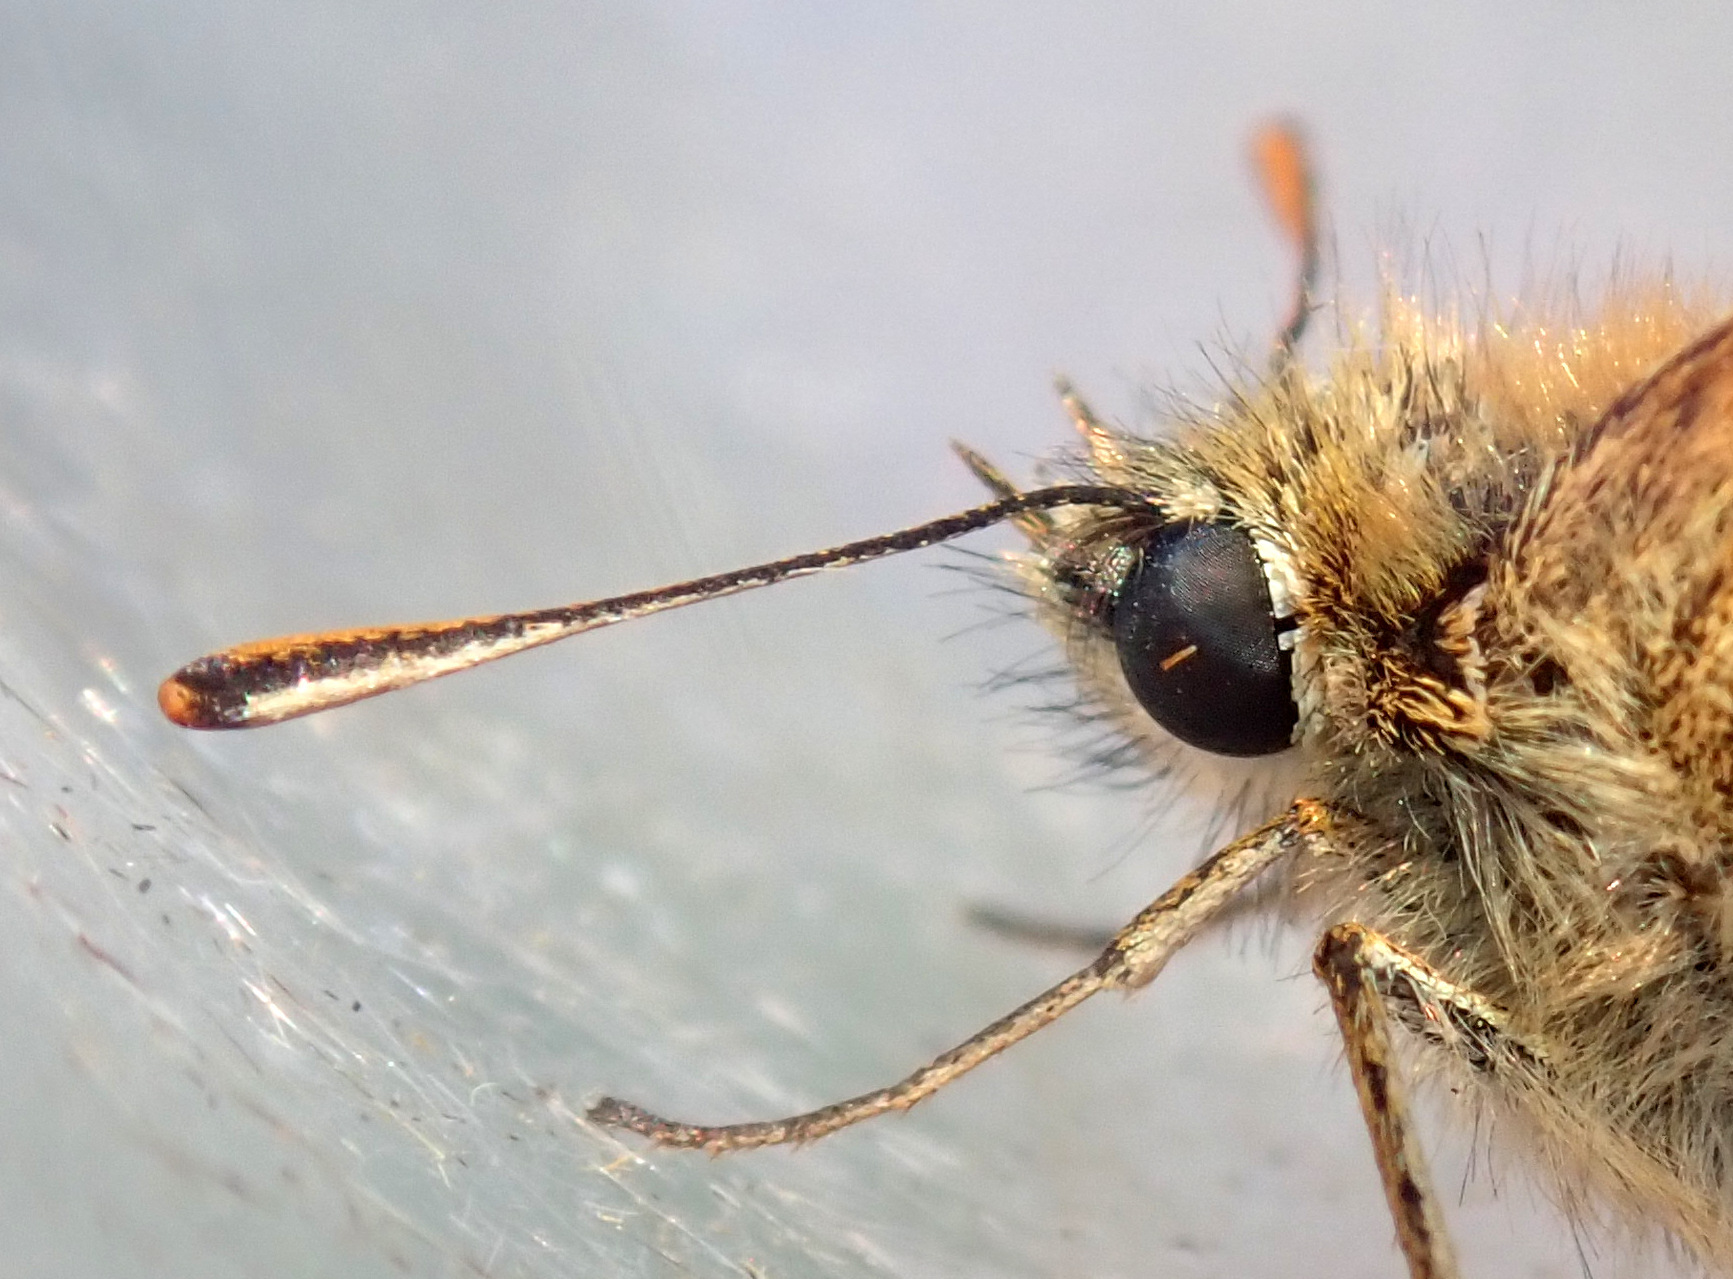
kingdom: Animalia
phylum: Arthropoda
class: Insecta
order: Lepidoptera
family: Hesperiidae
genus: Thymelicus
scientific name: Thymelicus sylvestris
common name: Small skipper
